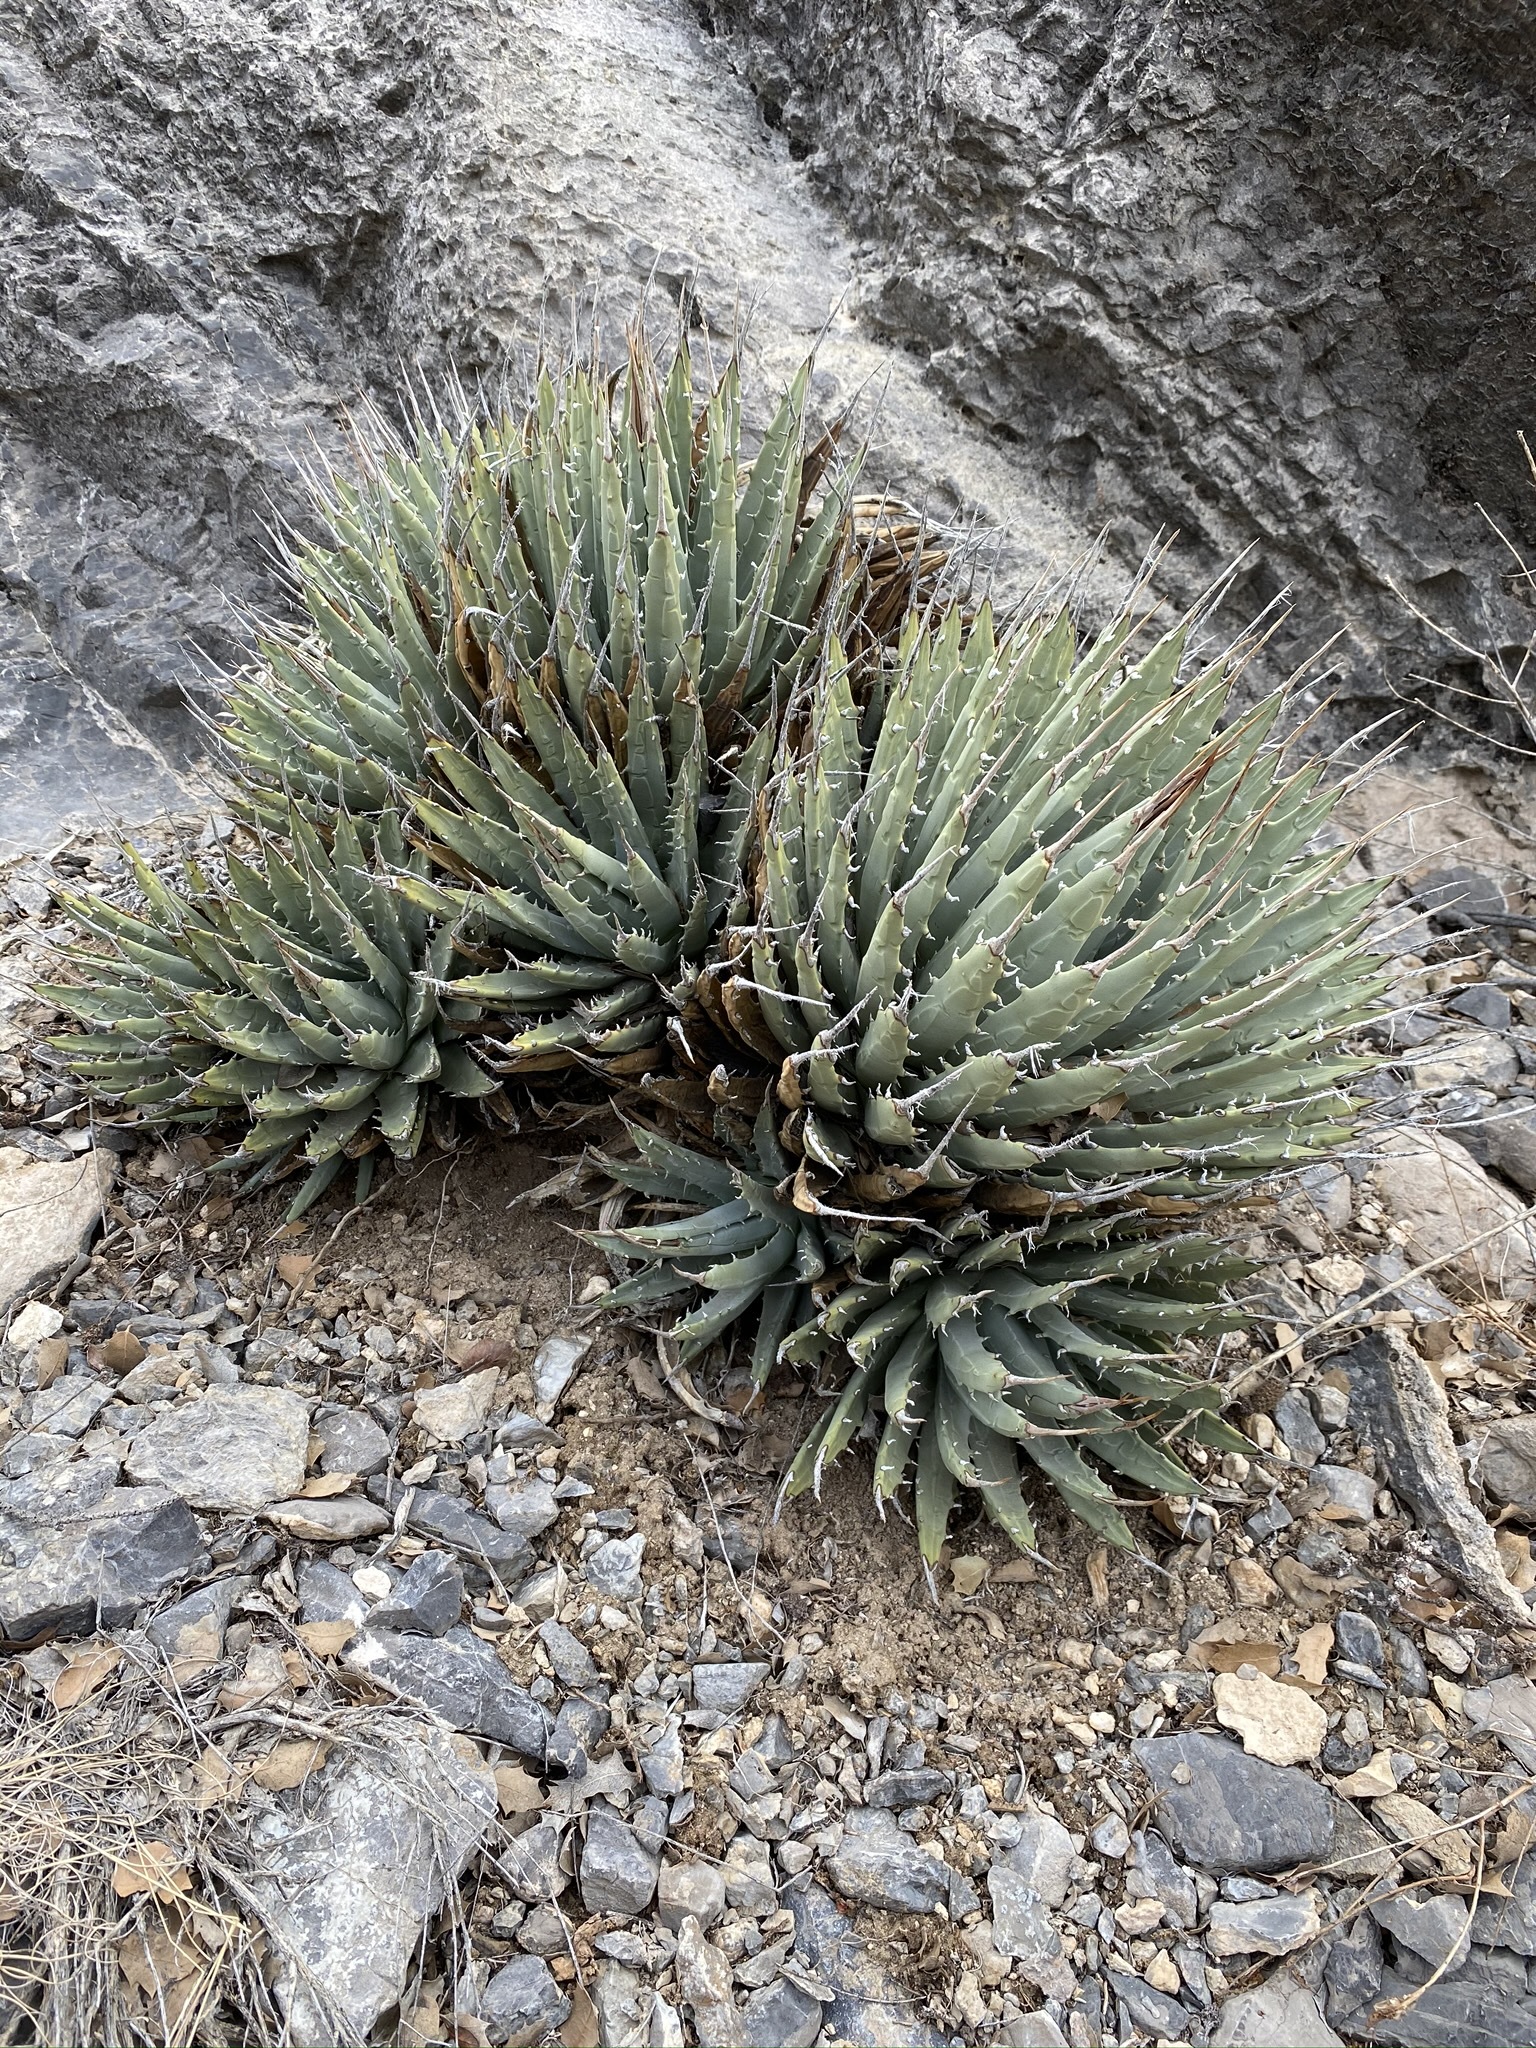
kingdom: Plantae
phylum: Tracheophyta
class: Liliopsida
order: Asparagales
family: Asparagaceae
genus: Agave
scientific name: Agave utahensis
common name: Utah agave
